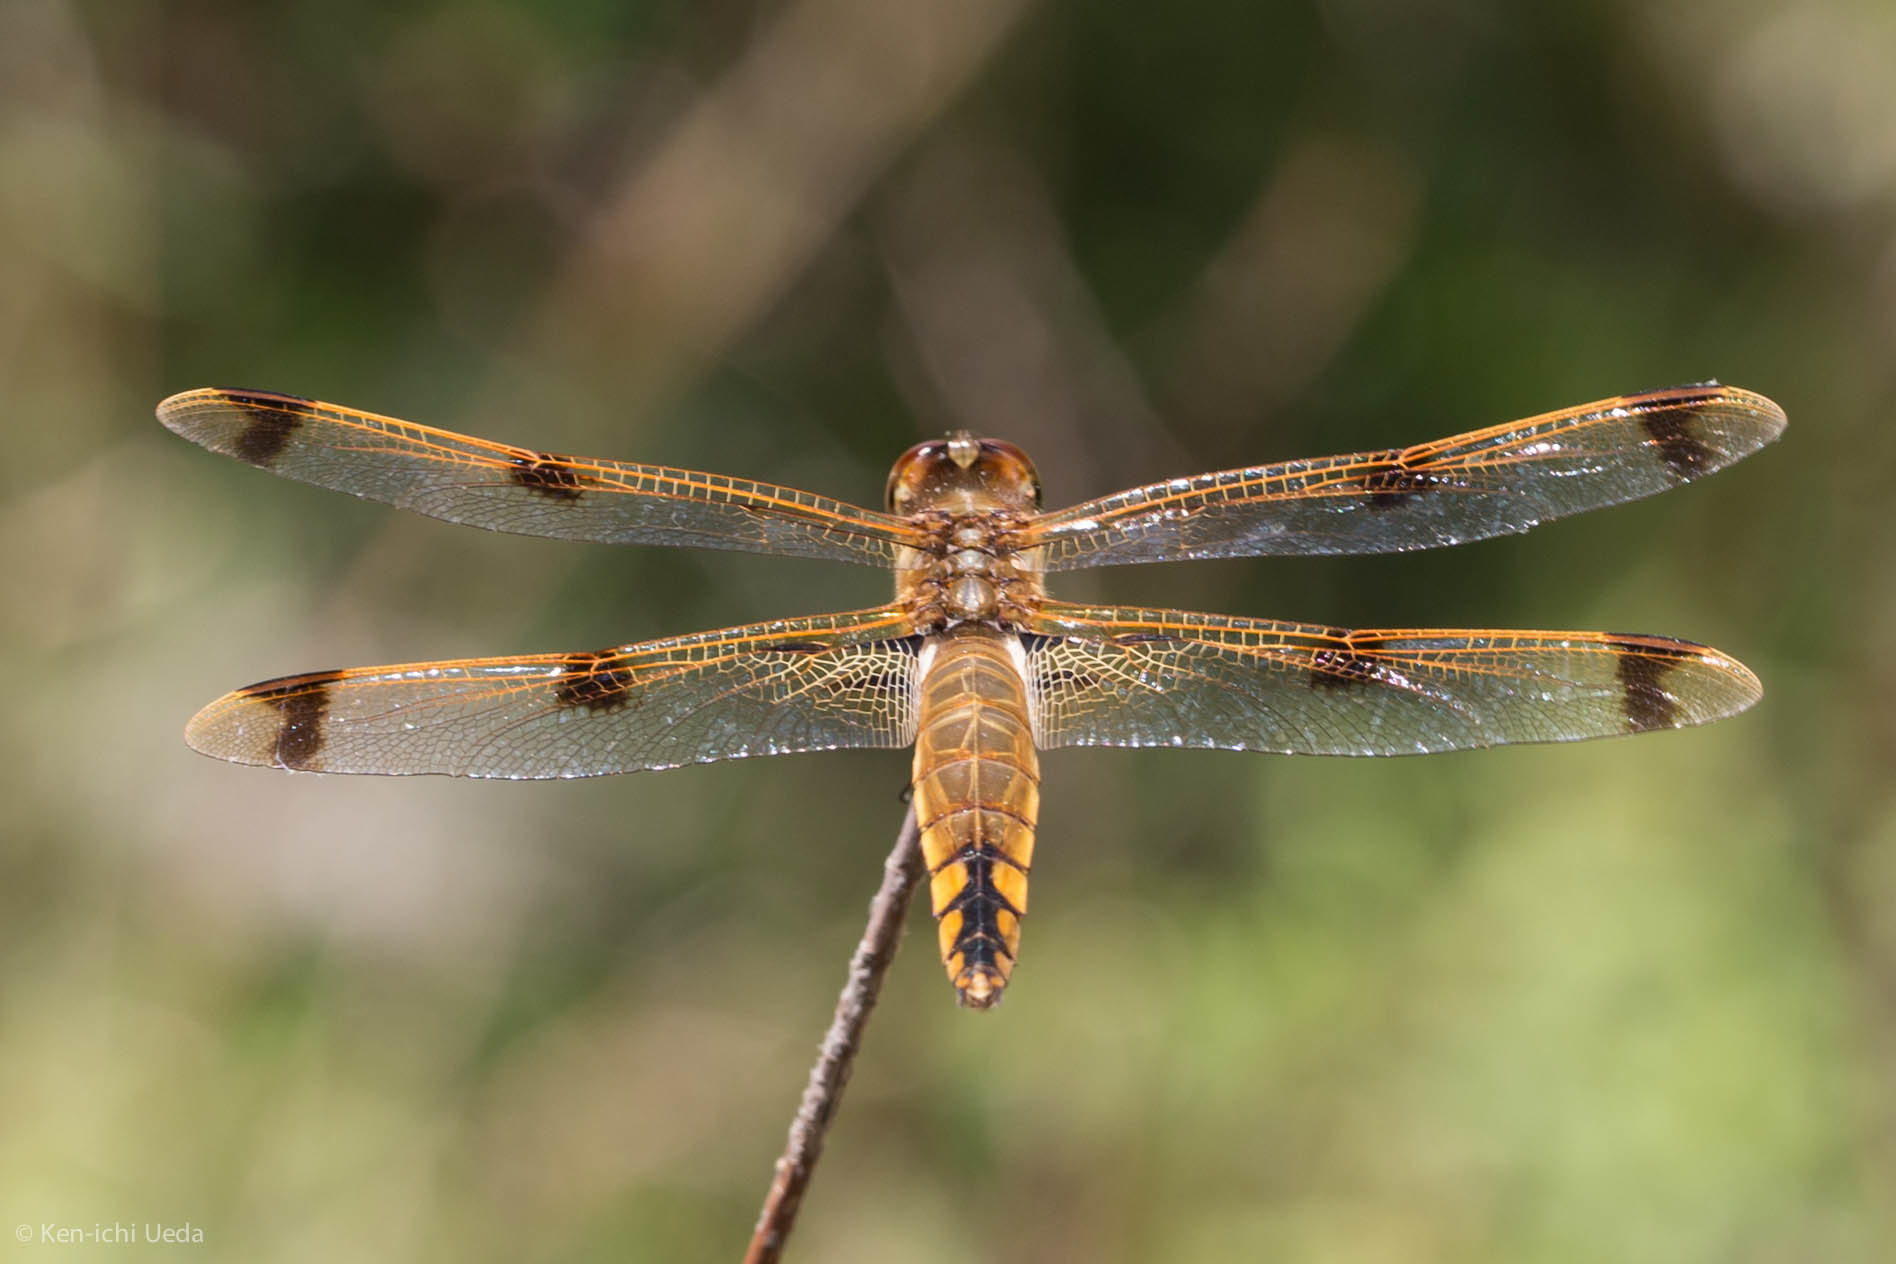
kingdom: Animalia
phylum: Arthropoda
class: Insecta
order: Odonata
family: Libellulidae
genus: Libellula
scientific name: Libellula semifasciata
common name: Painted skimmer
